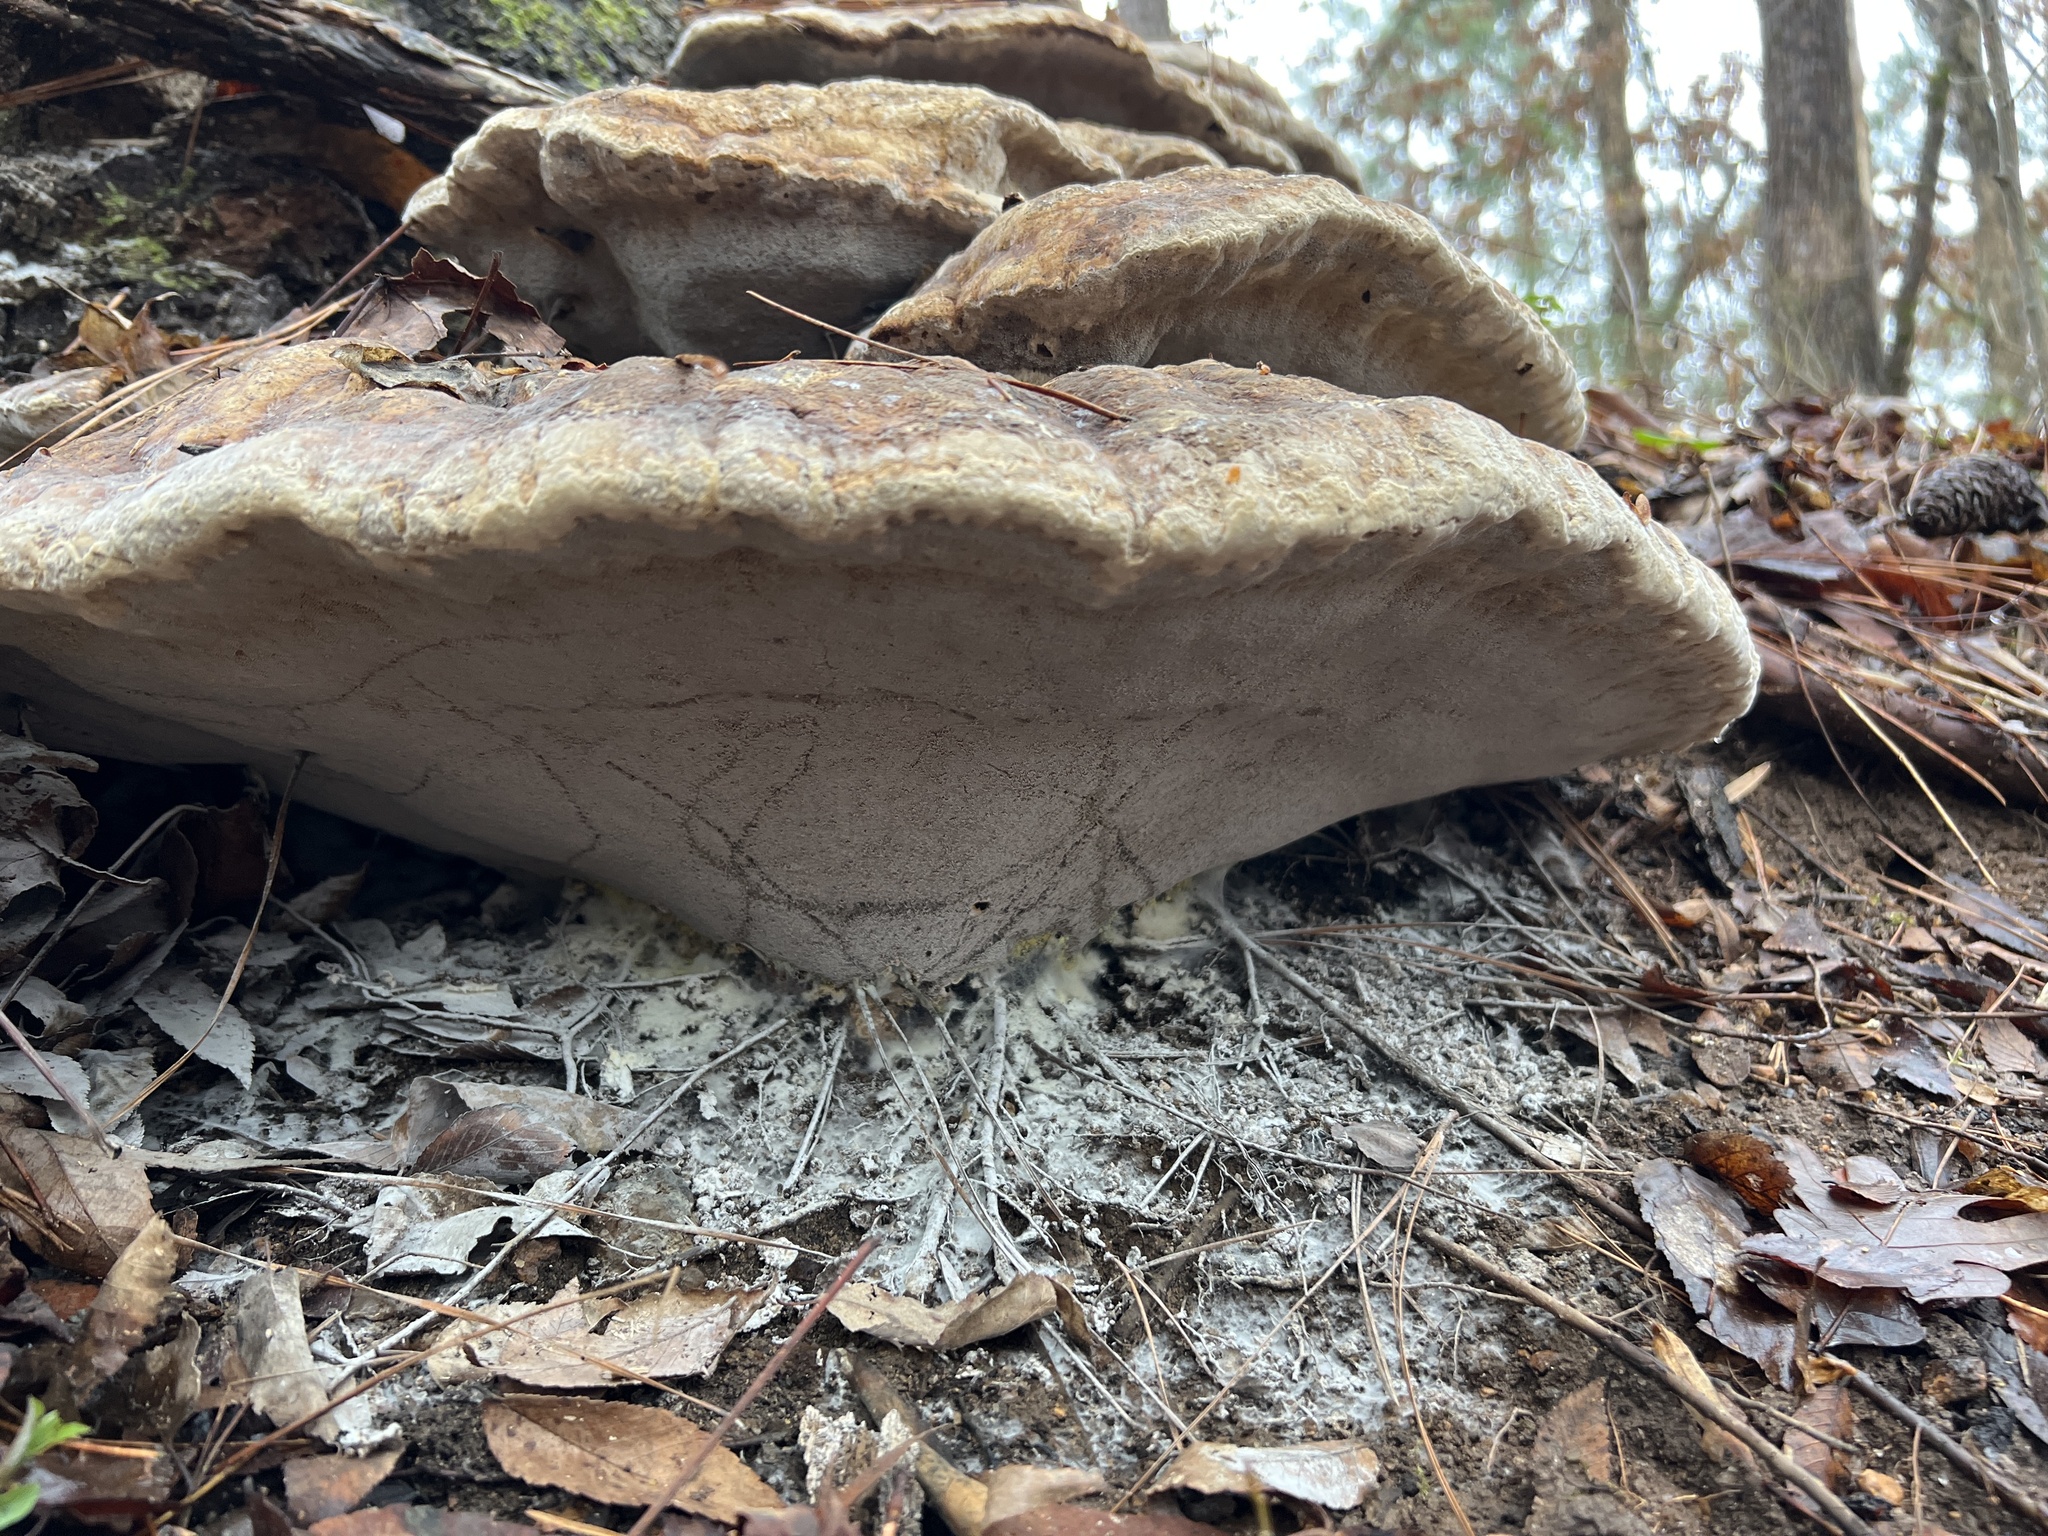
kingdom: Fungi
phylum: Basidiomycota
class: Agaricomycetes
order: Hymenochaetales
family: Hymenochaetaceae
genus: Pseudoinonotus
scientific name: Pseudoinonotus dryadeus
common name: Oak bracket
